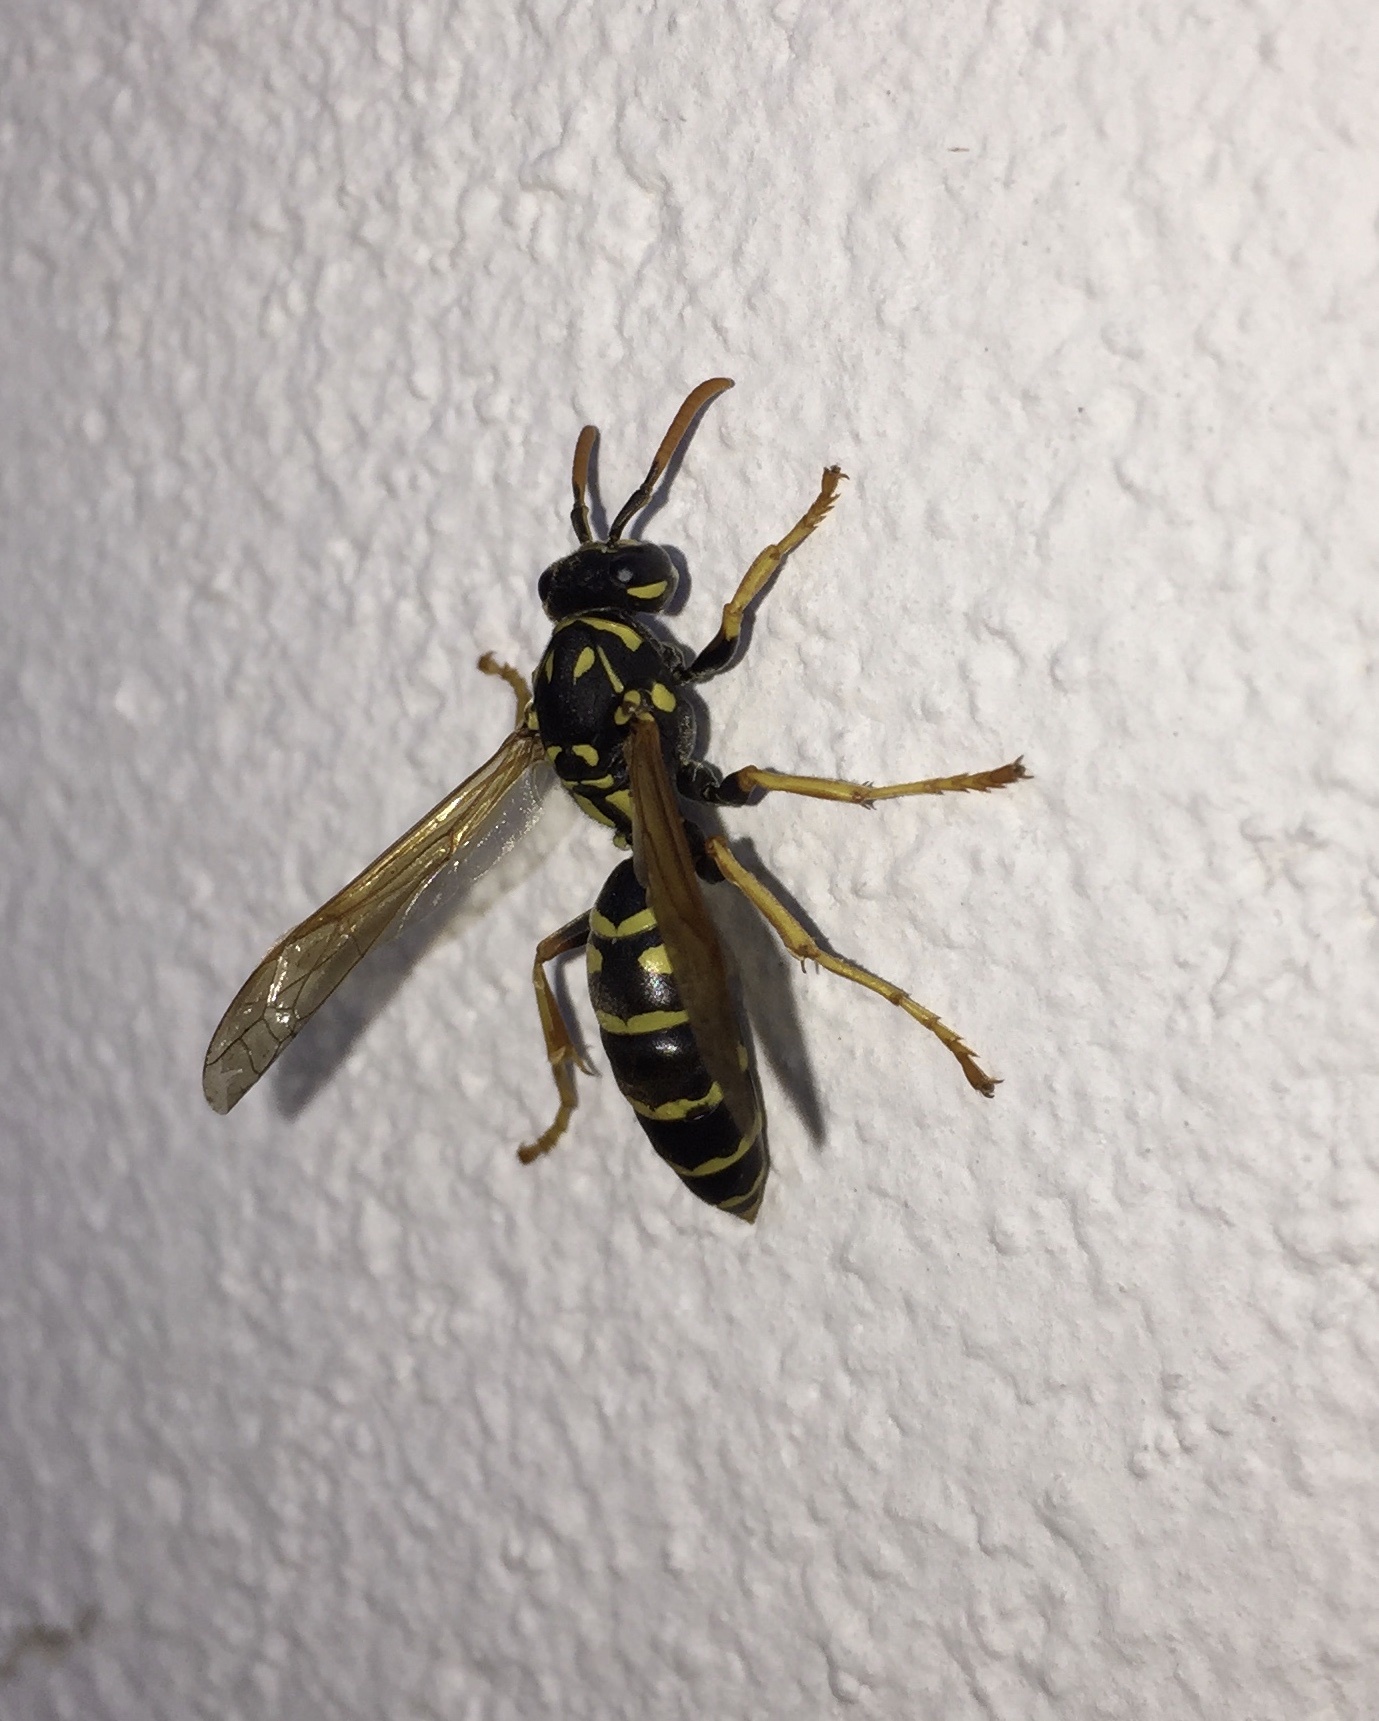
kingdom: Animalia
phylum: Arthropoda
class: Insecta
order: Hymenoptera
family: Eumenidae
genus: Polistes
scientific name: Polistes dominula
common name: Paper wasp
